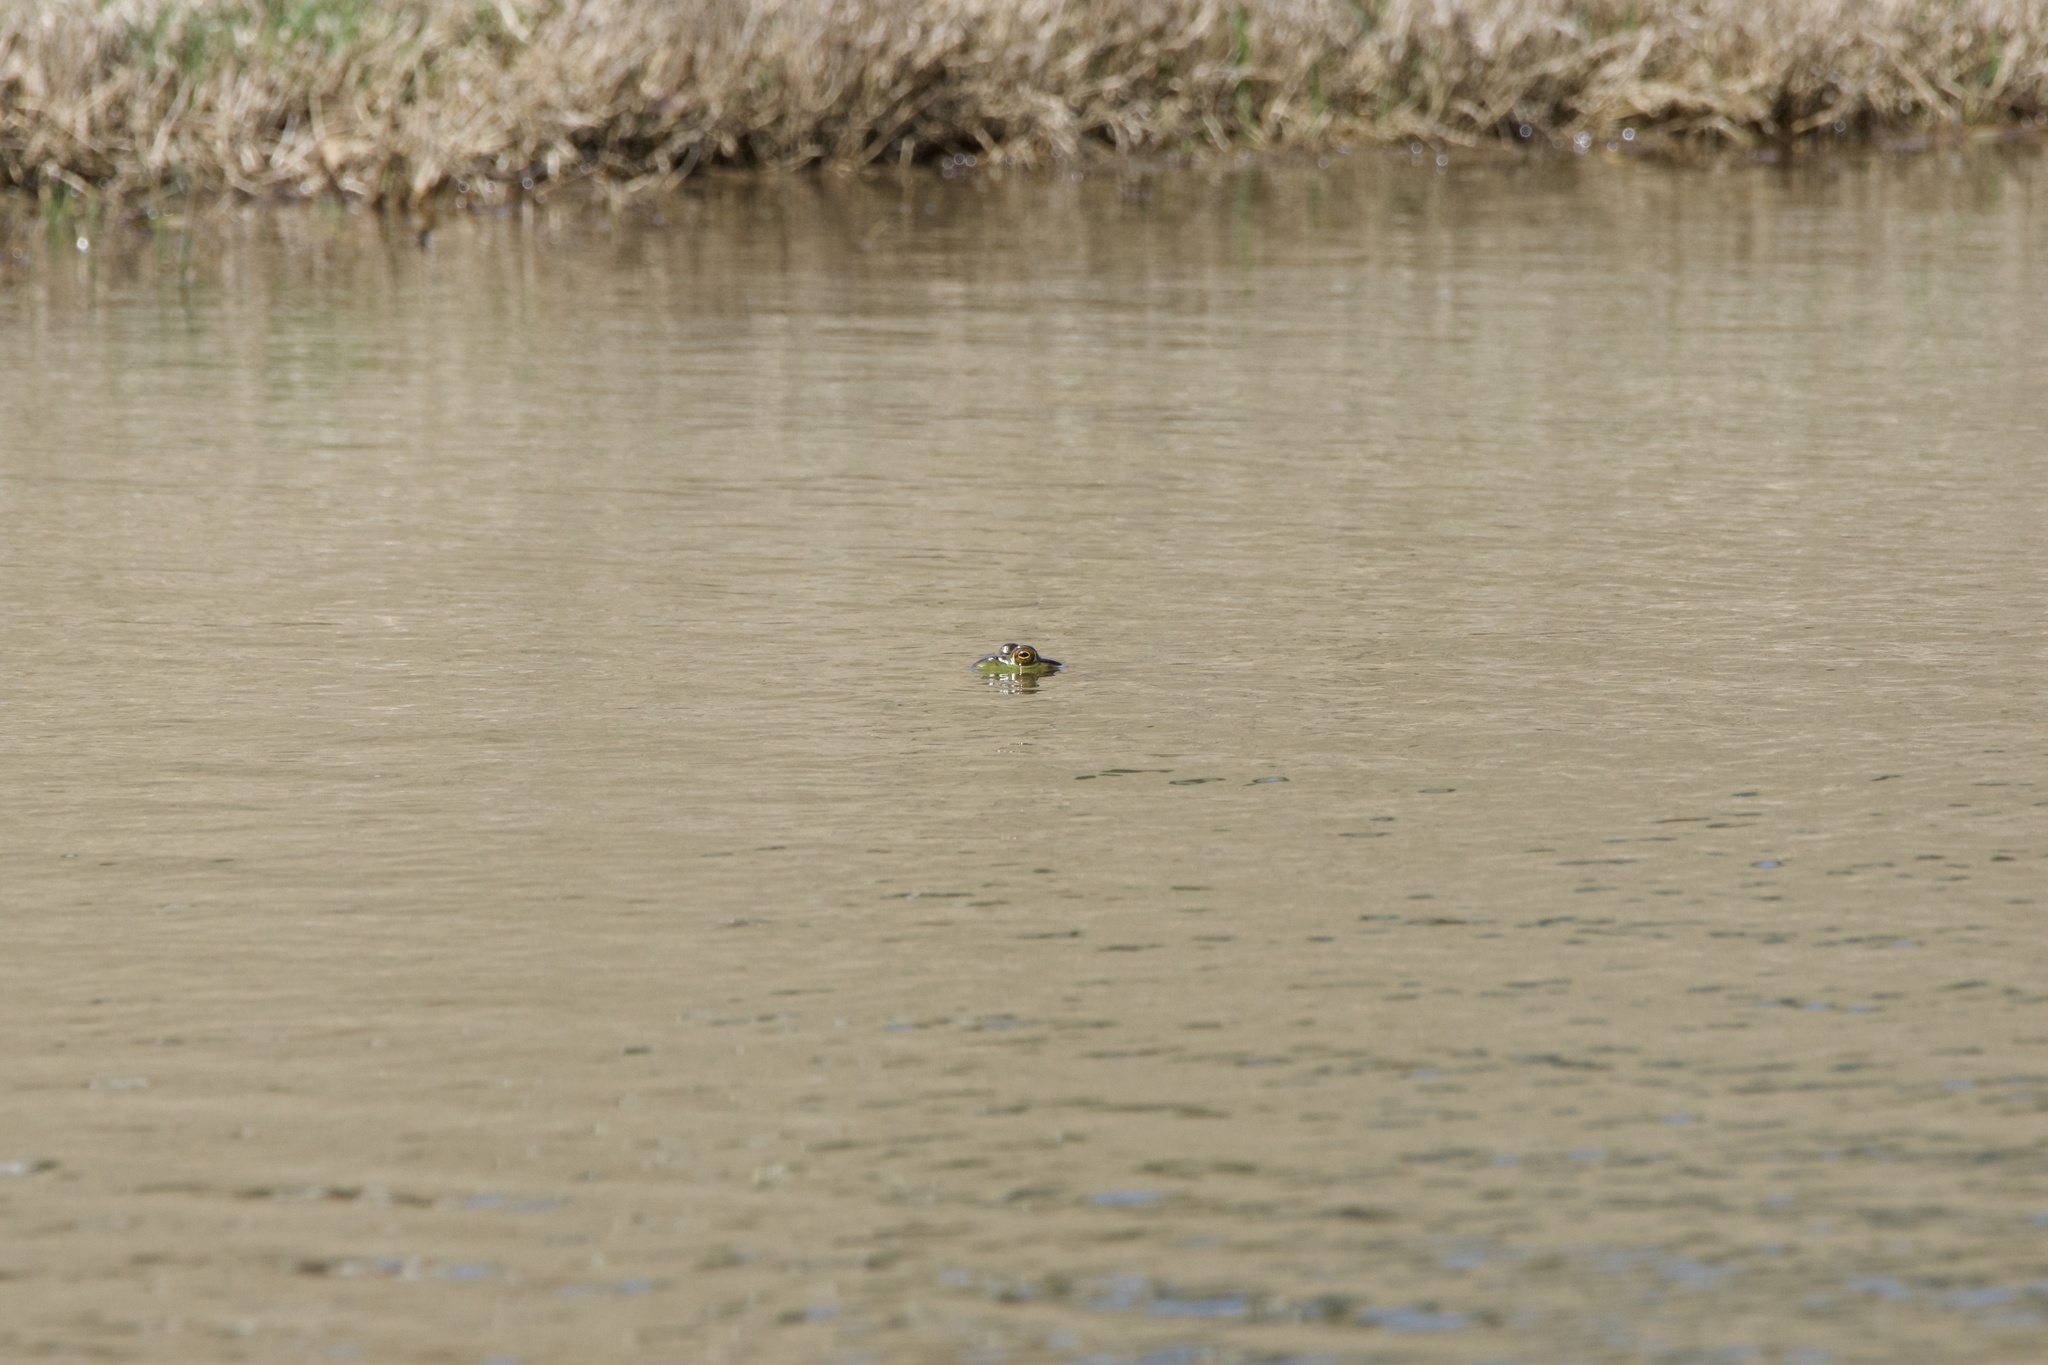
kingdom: Animalia
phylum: Chordata
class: Amphibia
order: Anura
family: Ranidae
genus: Lithobates
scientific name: Lithobates catesbeianus
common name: American bullfrog
